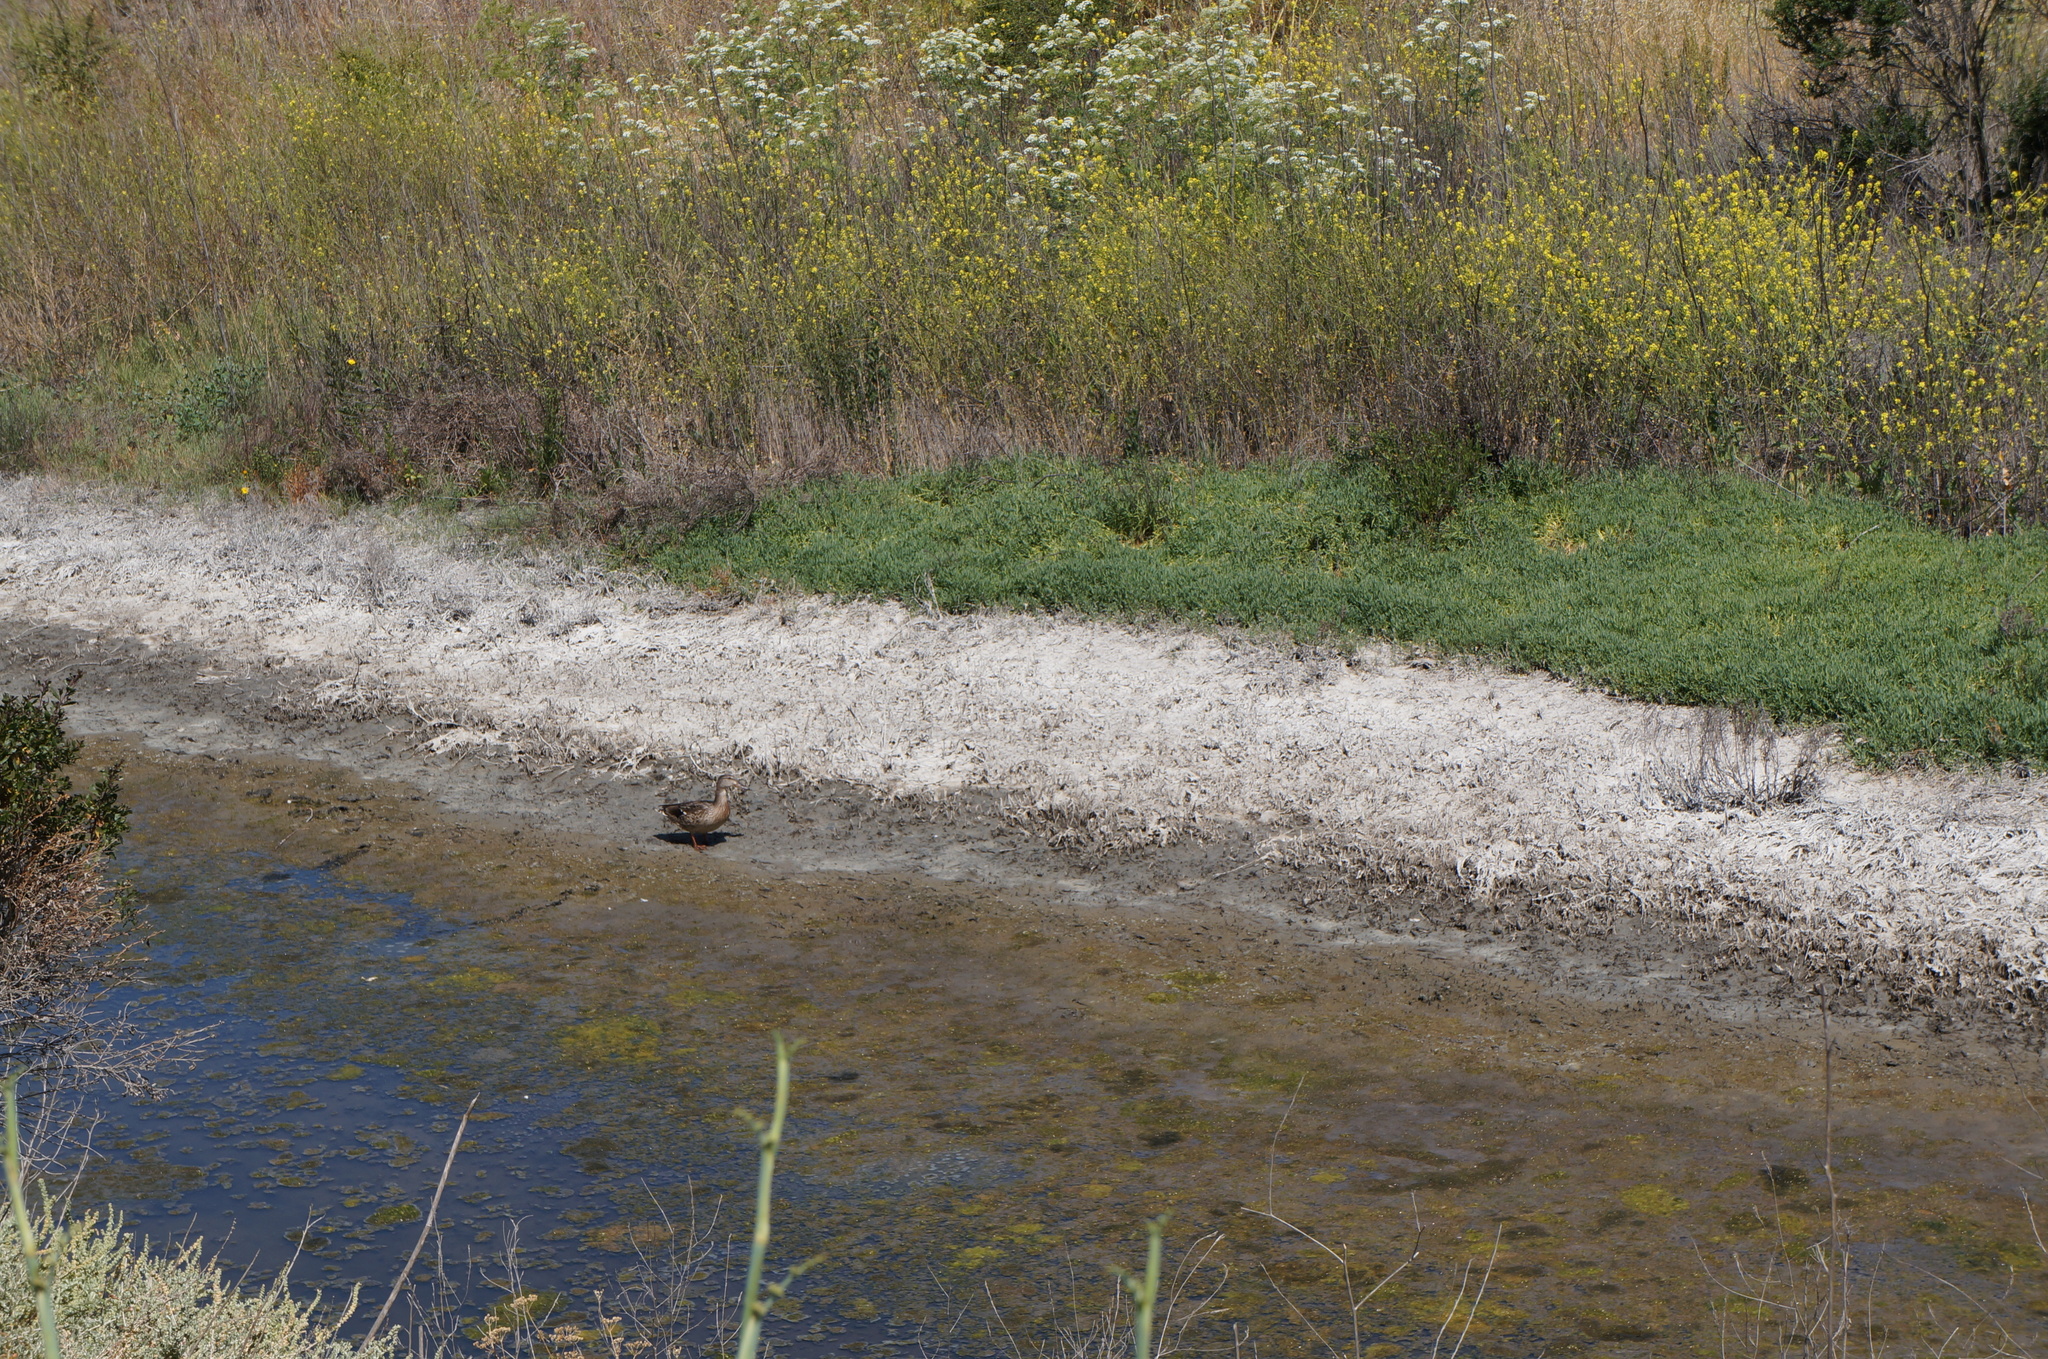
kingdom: Animalia
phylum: Chordata
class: Aves
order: Anseriformes
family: Anatidae
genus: Anas
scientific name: Anas platyrhynchos
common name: Mallard
